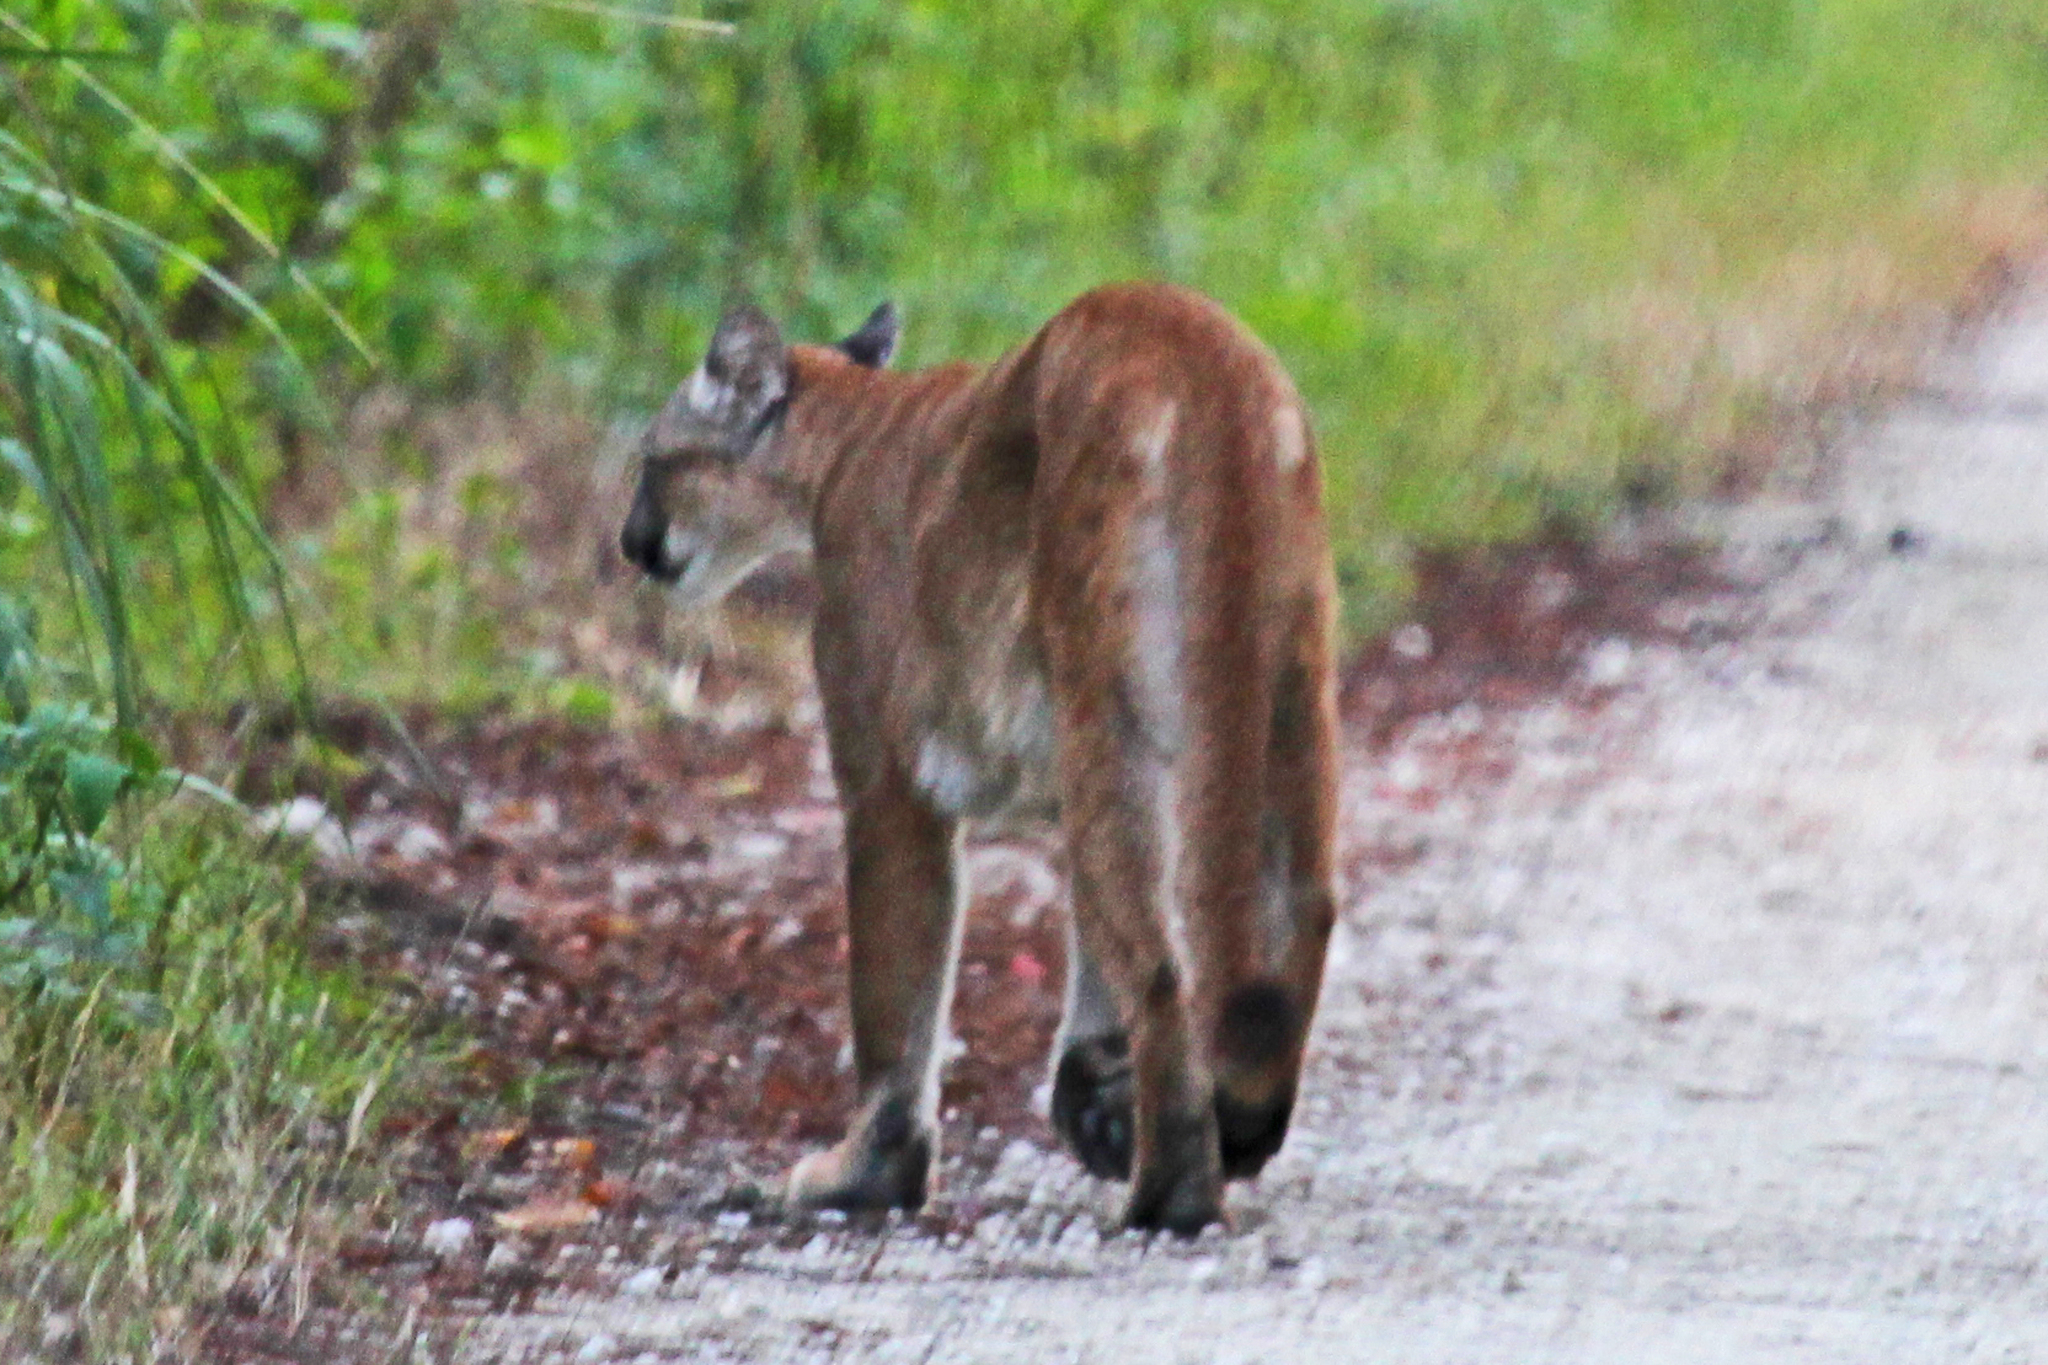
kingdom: Animalia
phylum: Chordata
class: Mammalia
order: Carnivora
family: Felidae
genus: Puma
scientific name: Puma concolor
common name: Puma
